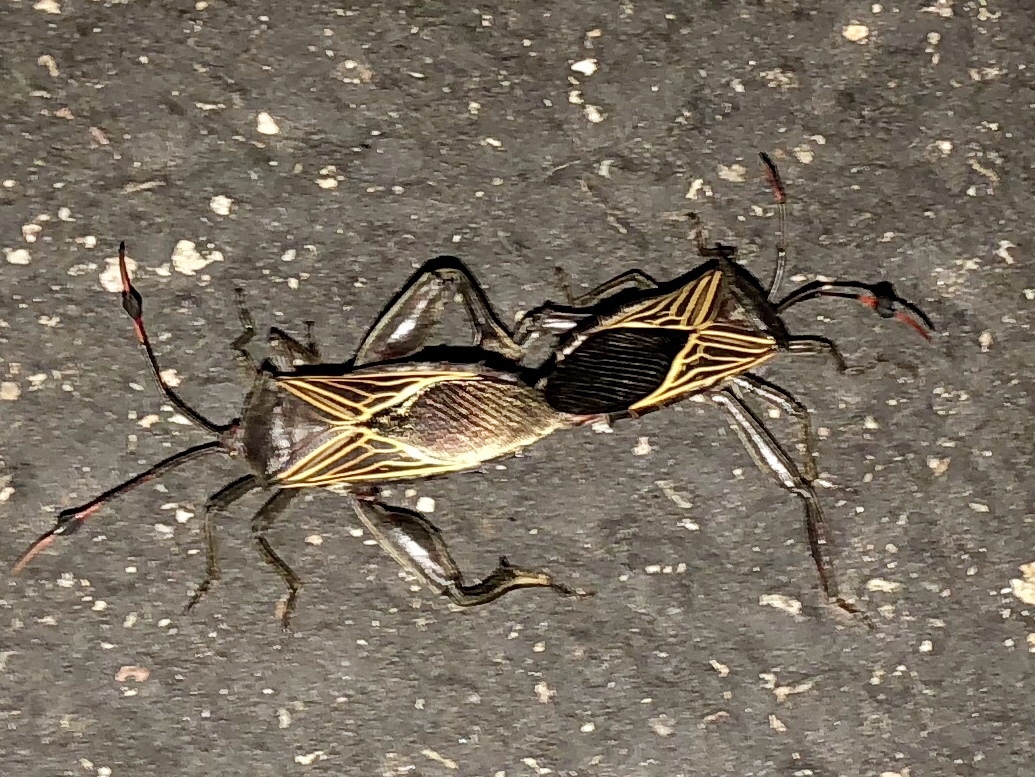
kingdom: Animalia
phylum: Arthropoda
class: Insecta
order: Hemiptera
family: Coreidae
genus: Thasus
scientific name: Thasus neocalifornicus
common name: Giant mesquite bug
